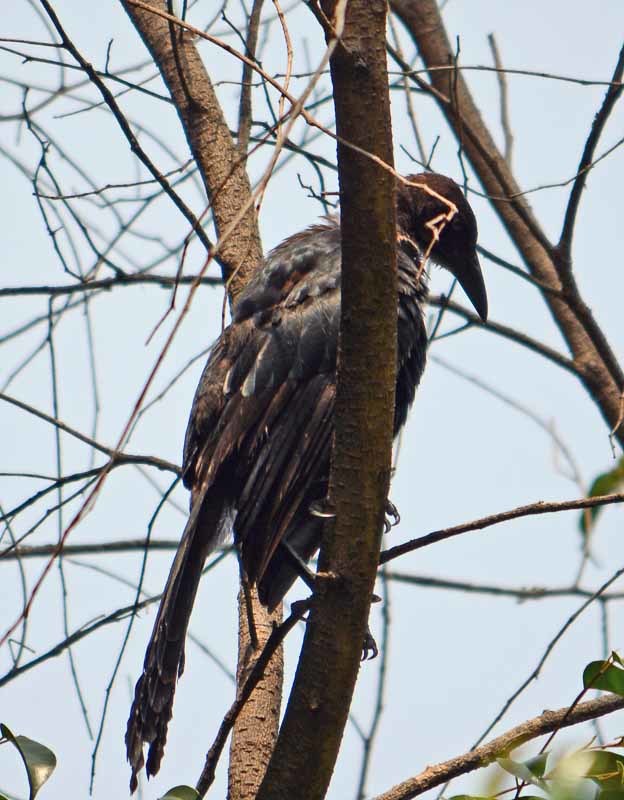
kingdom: Animalia
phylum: Chordata
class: Aves
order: Passeriformes
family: Icteridae
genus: Quiscalus
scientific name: Quiscalus mexicanus
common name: Great-tailed grackle
